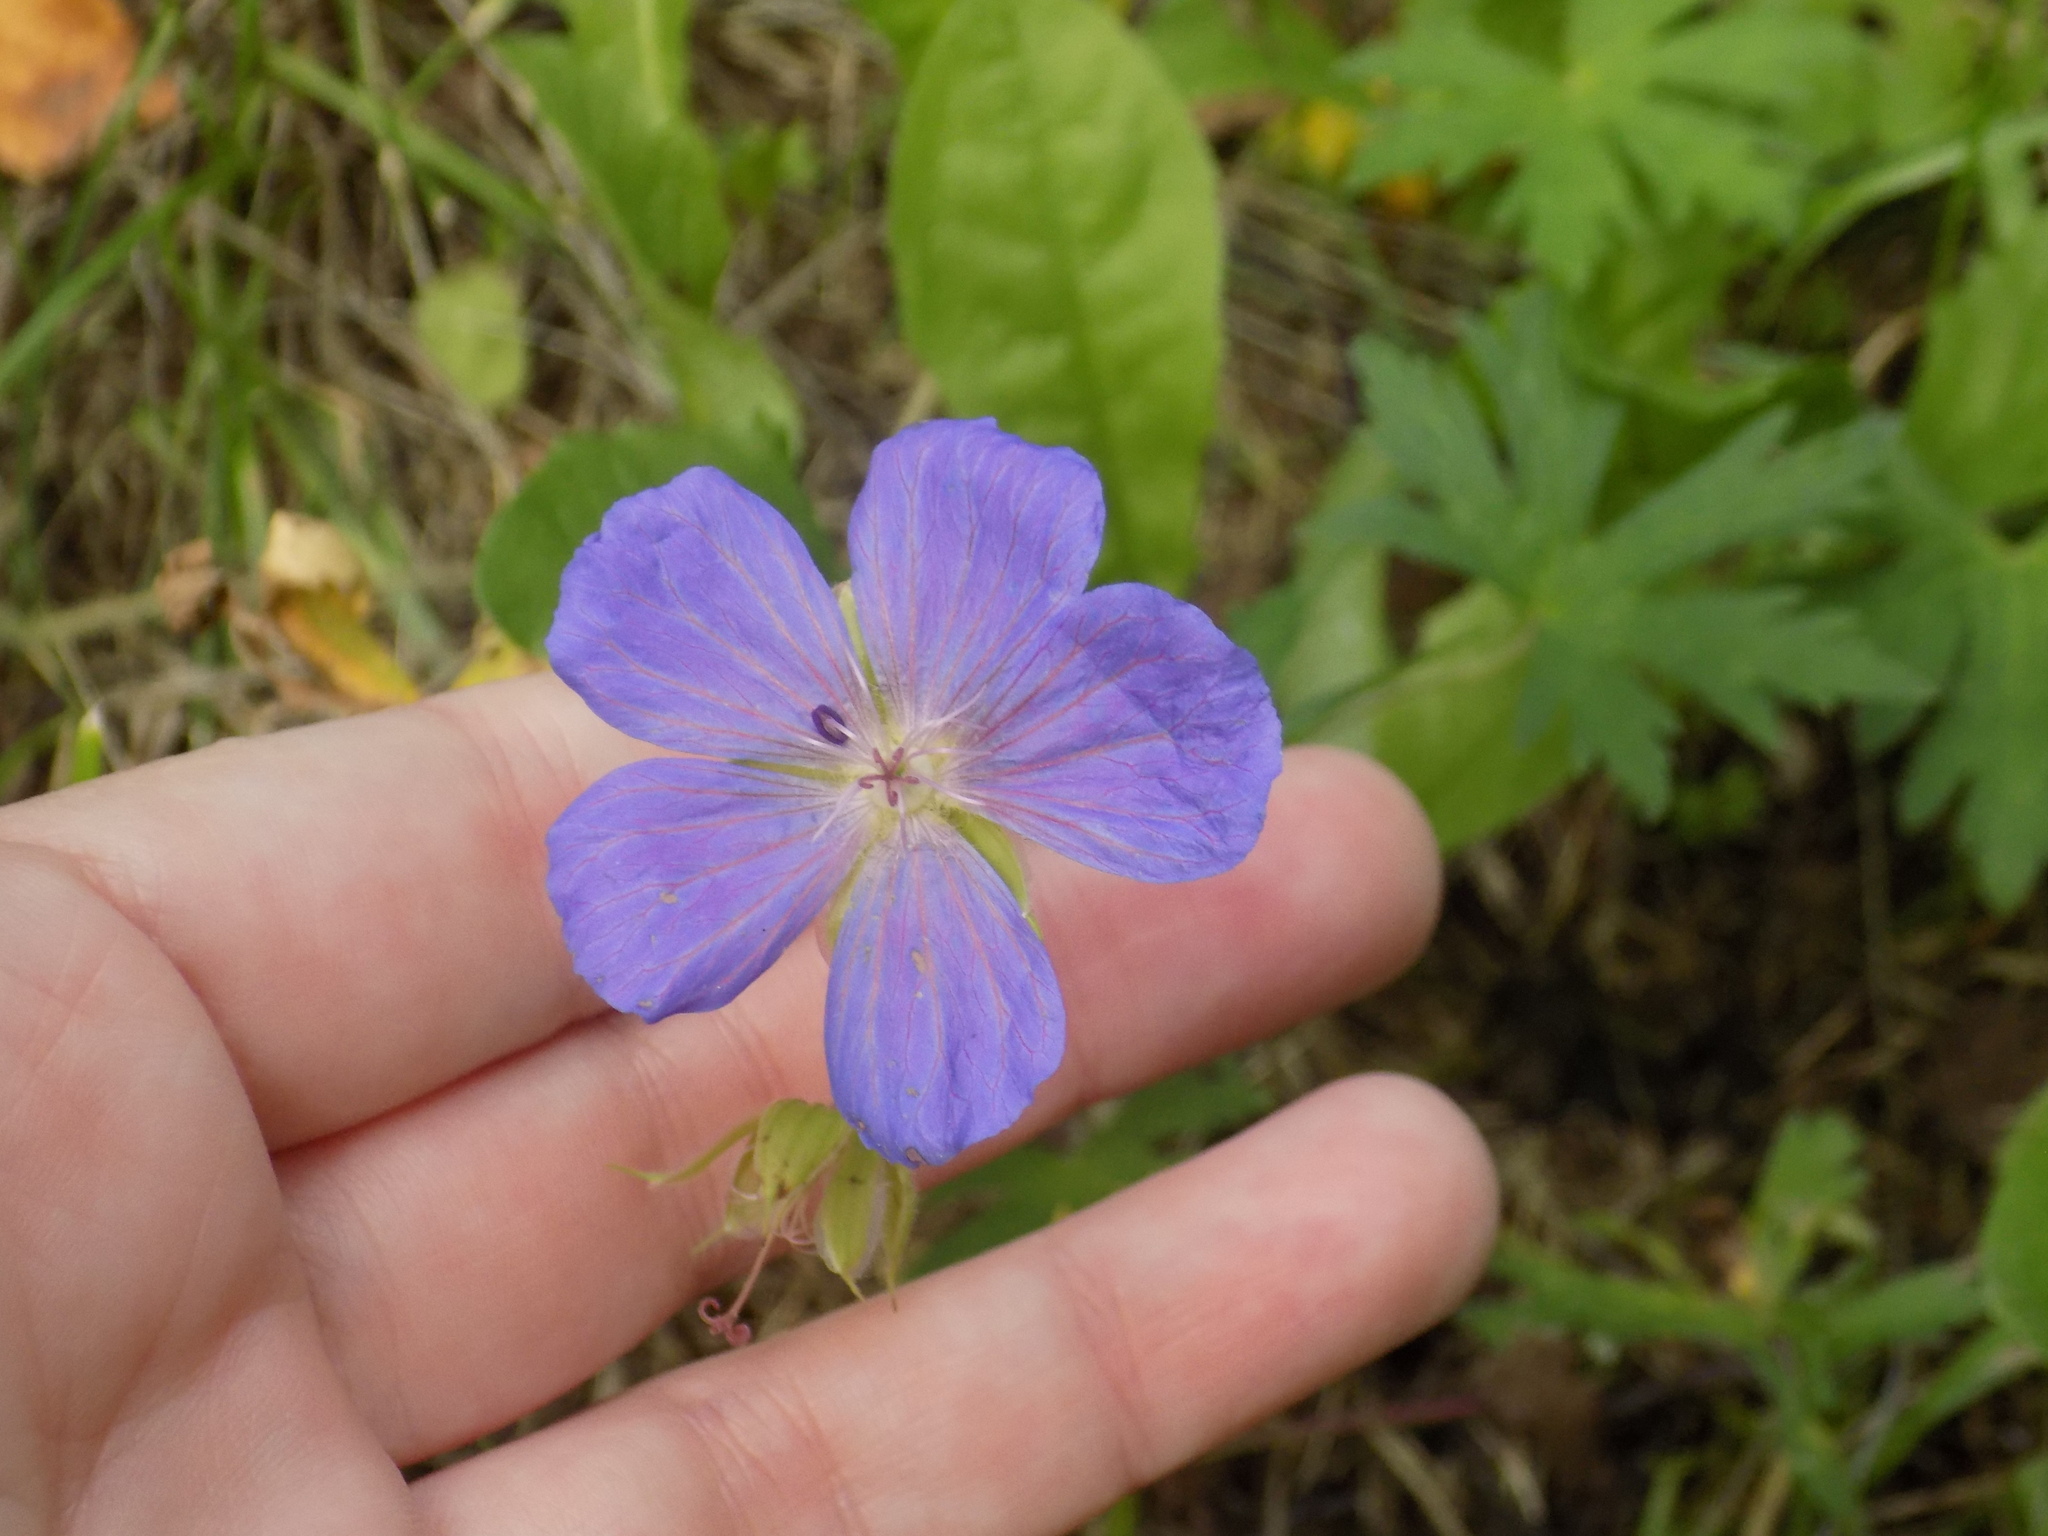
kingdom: Plantae
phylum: Tracheophyta
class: Magnoliopsida
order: Geraniales
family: Geraniaceae
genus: Geranium
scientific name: Geranium pratense
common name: Meadow crane's-bill
